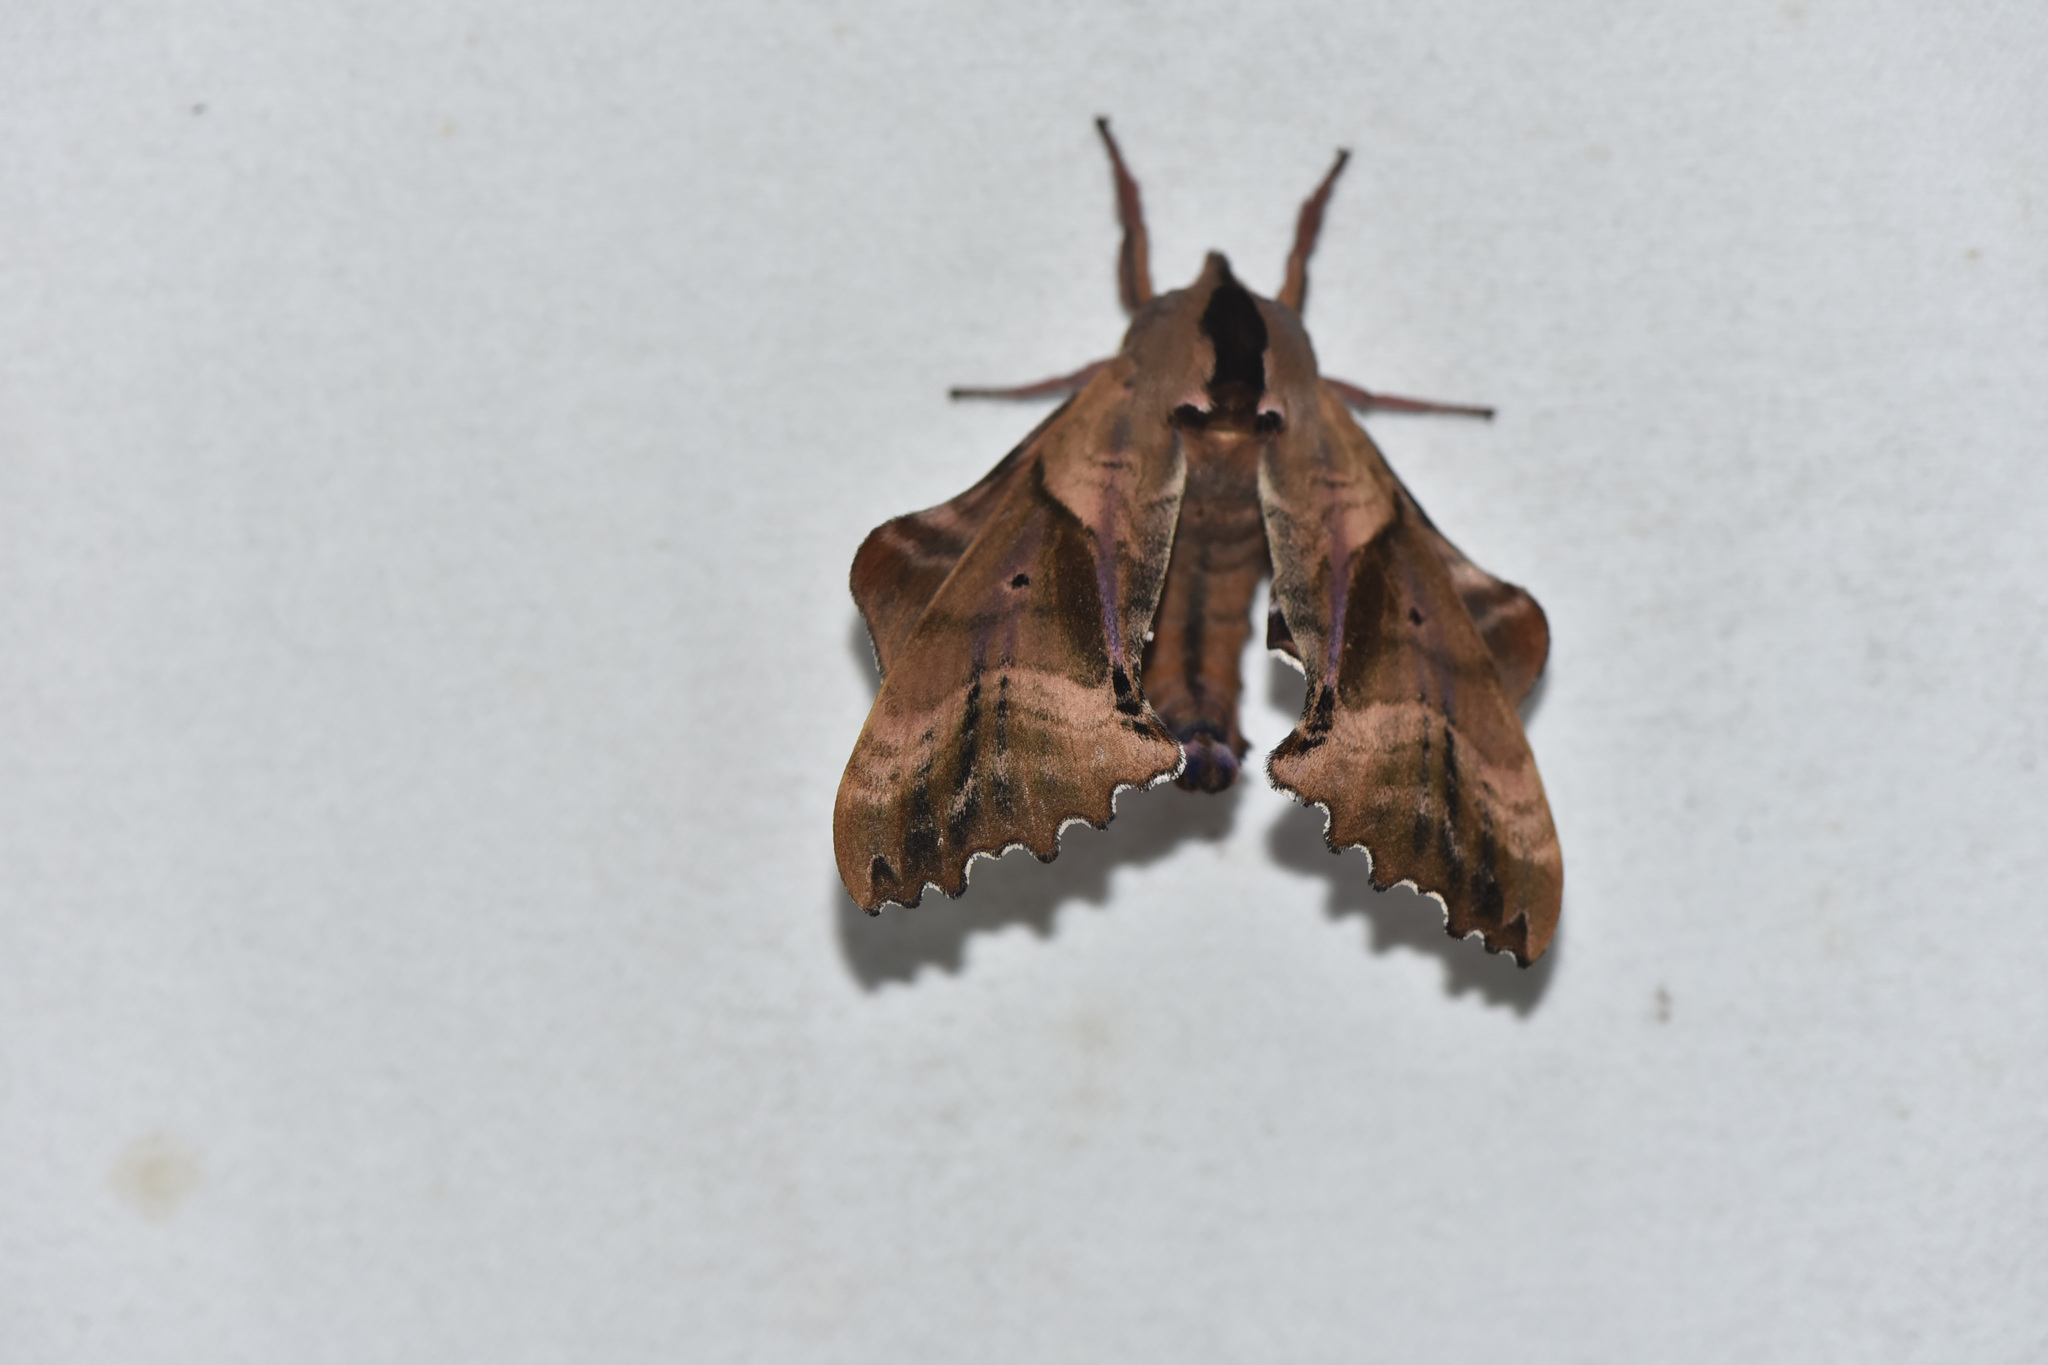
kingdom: Animalia
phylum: Arthropoda
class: Insecta
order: Lepidoptera
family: Sphingidae
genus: Paonias
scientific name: Paonias excaecata
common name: Blind-eyed sphinx
